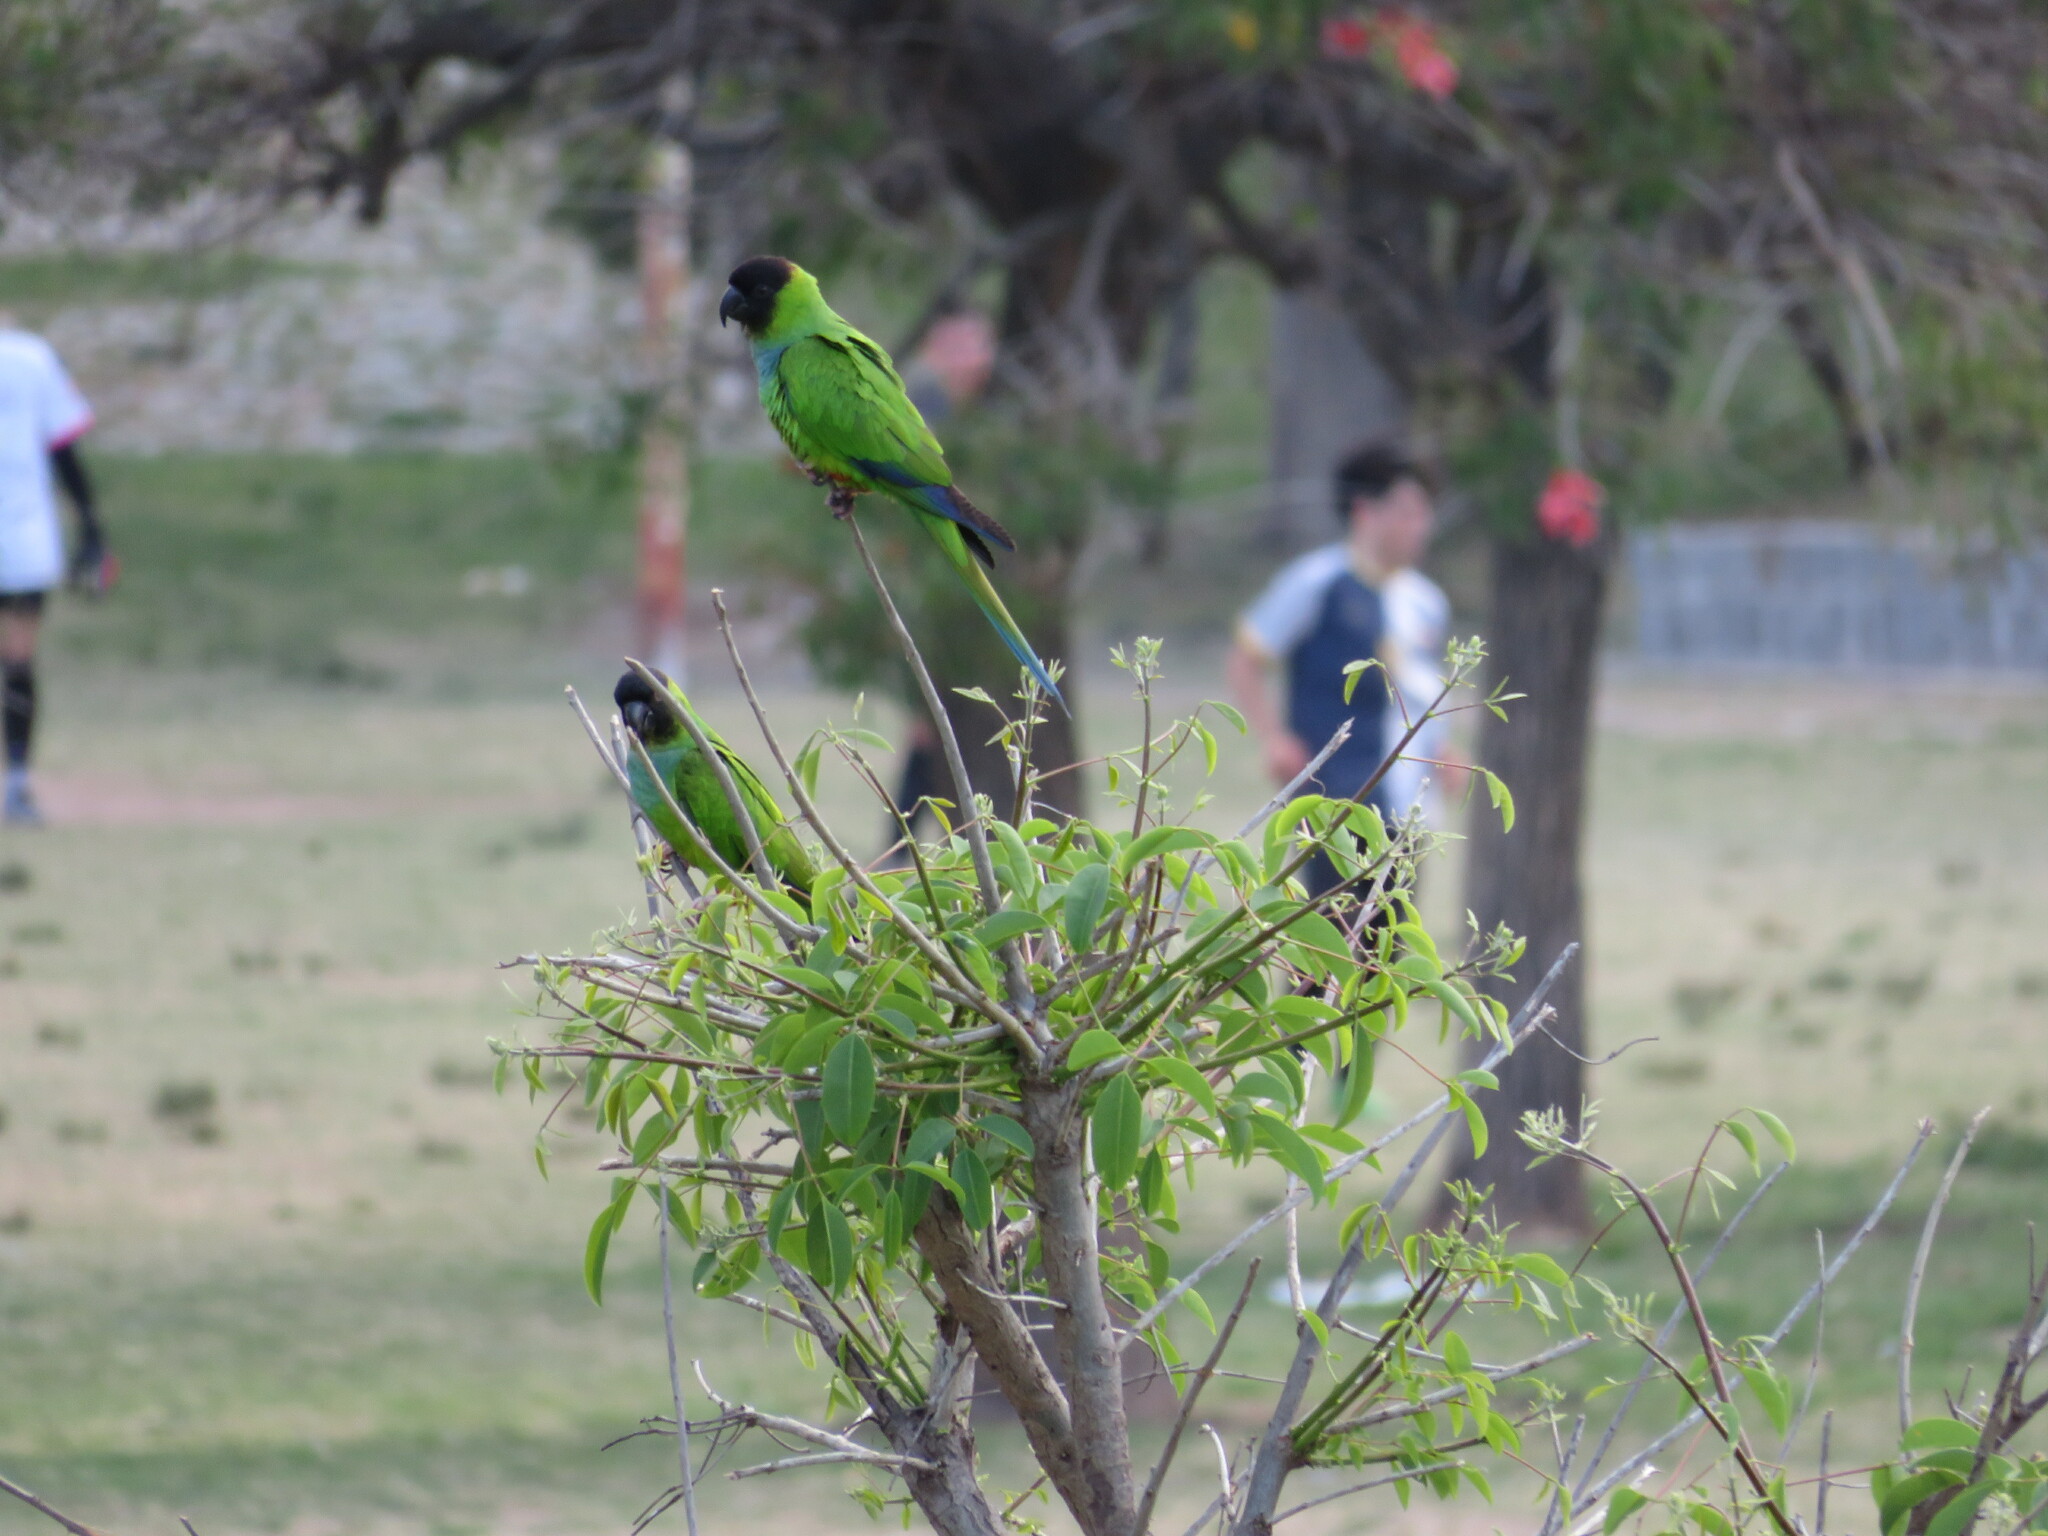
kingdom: Animalia
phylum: Chordata
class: Aves
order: Psittaciformes
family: Psittacidae
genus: Nandayus
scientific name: Nandayus nenday
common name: Nanday parakeet
